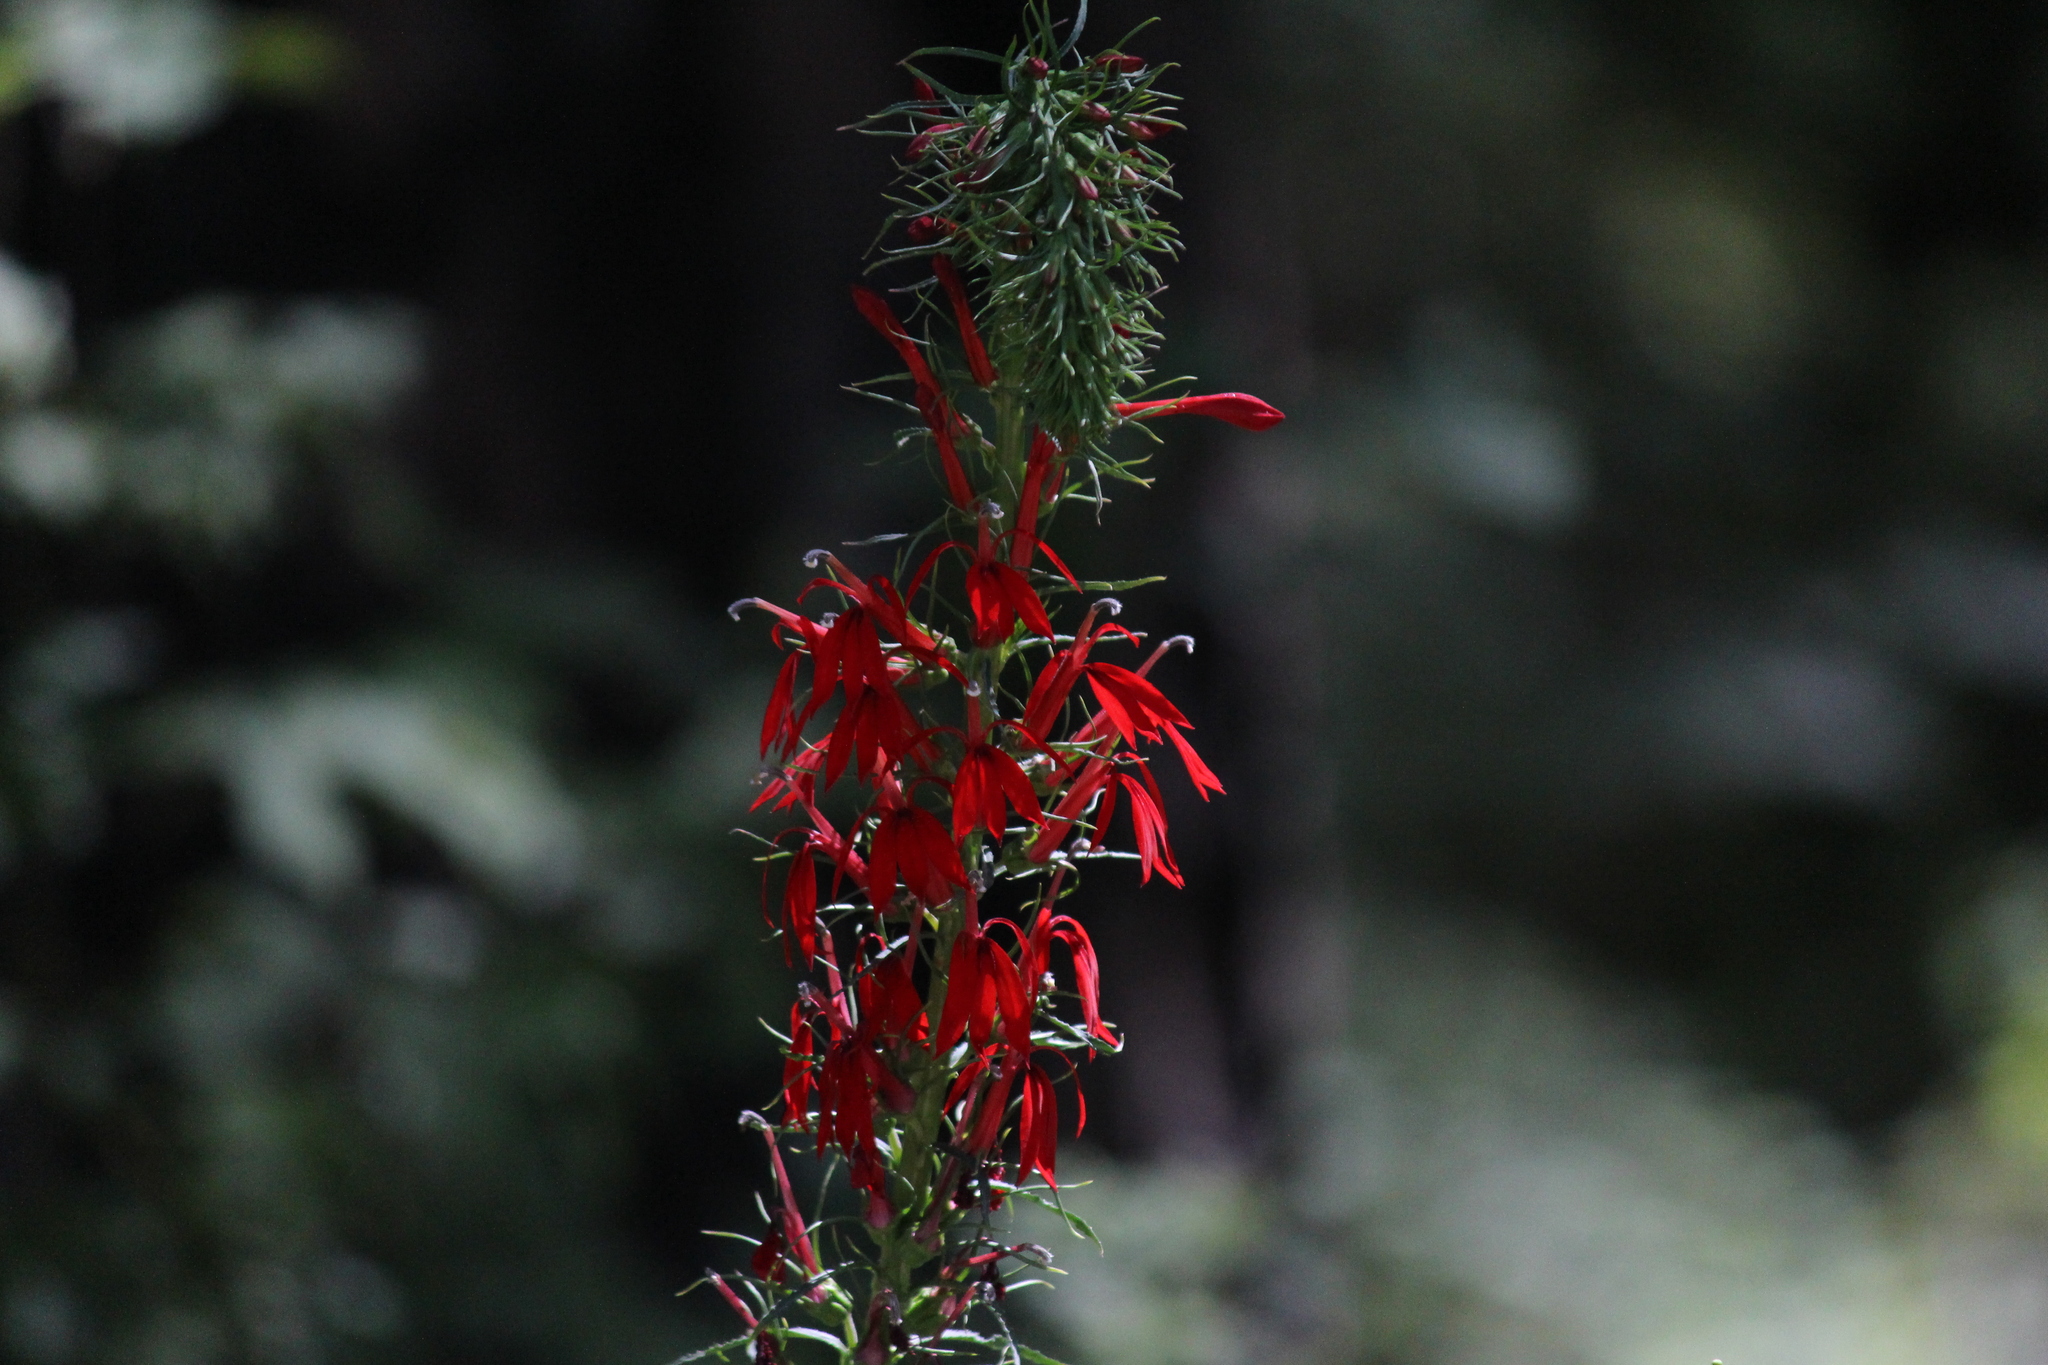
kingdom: Plantae
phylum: Tracheophyta
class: Magnoliopsida
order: Asterales
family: Campanulaceae
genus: Lobelia
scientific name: Lobelia cardinalis
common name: Cardinal flower
